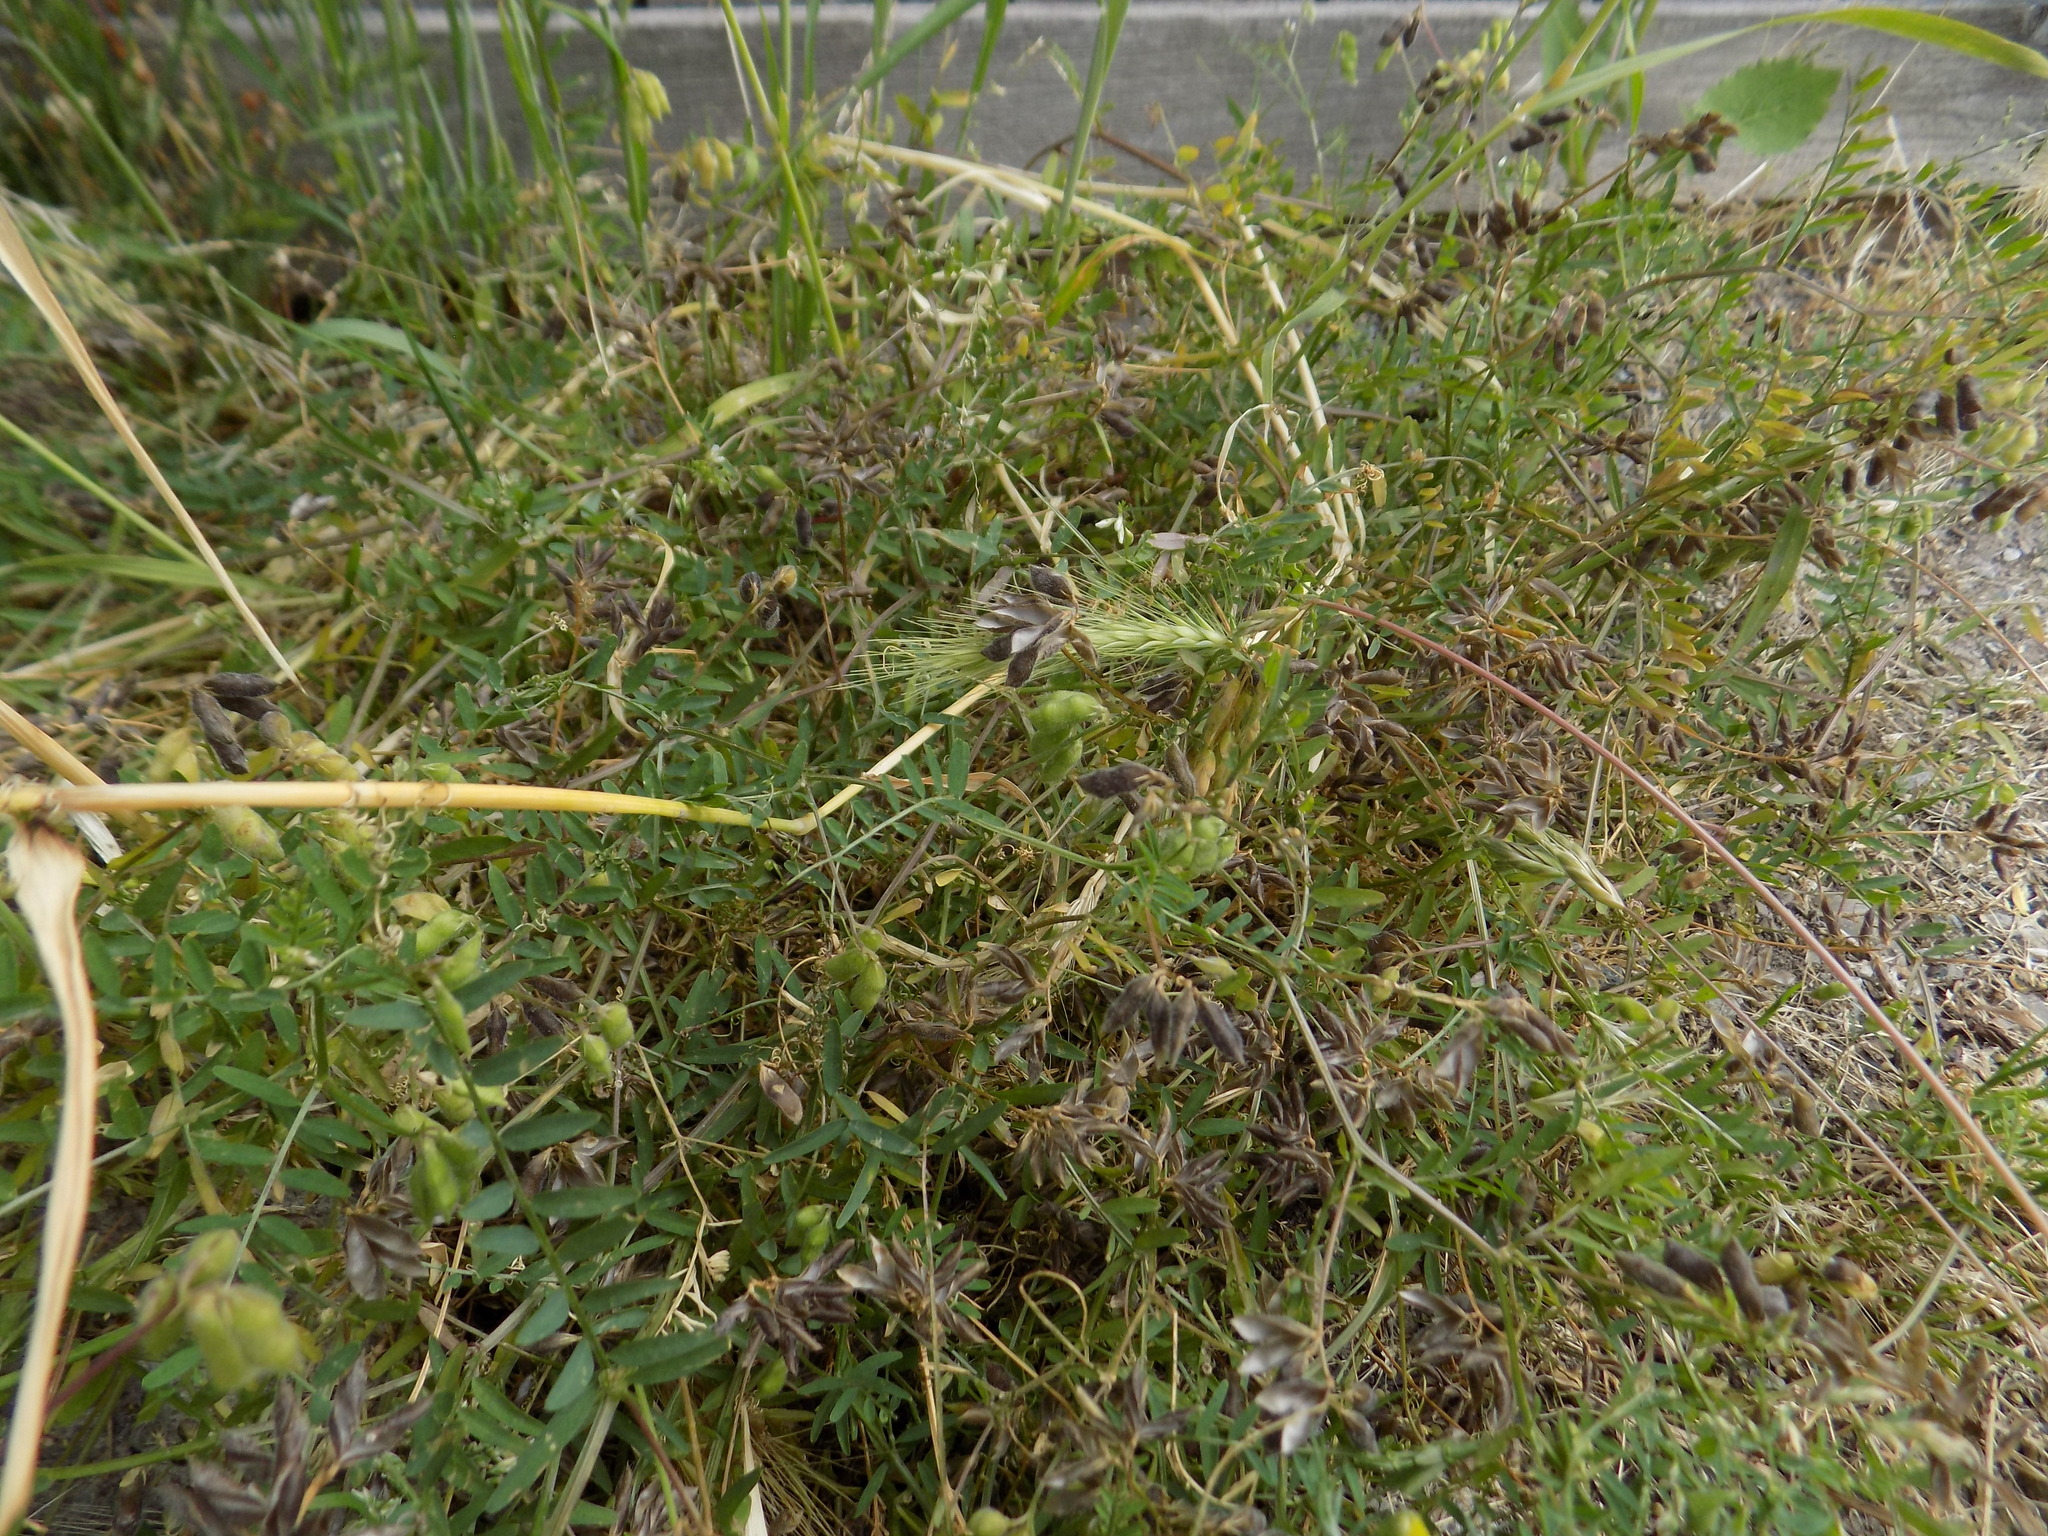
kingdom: Plantae
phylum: Tracheophyta
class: Magnoliopsida
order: Fabales
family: Fabaceae
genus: Vicia
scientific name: Vicia hirsuta
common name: Tiny vetch
